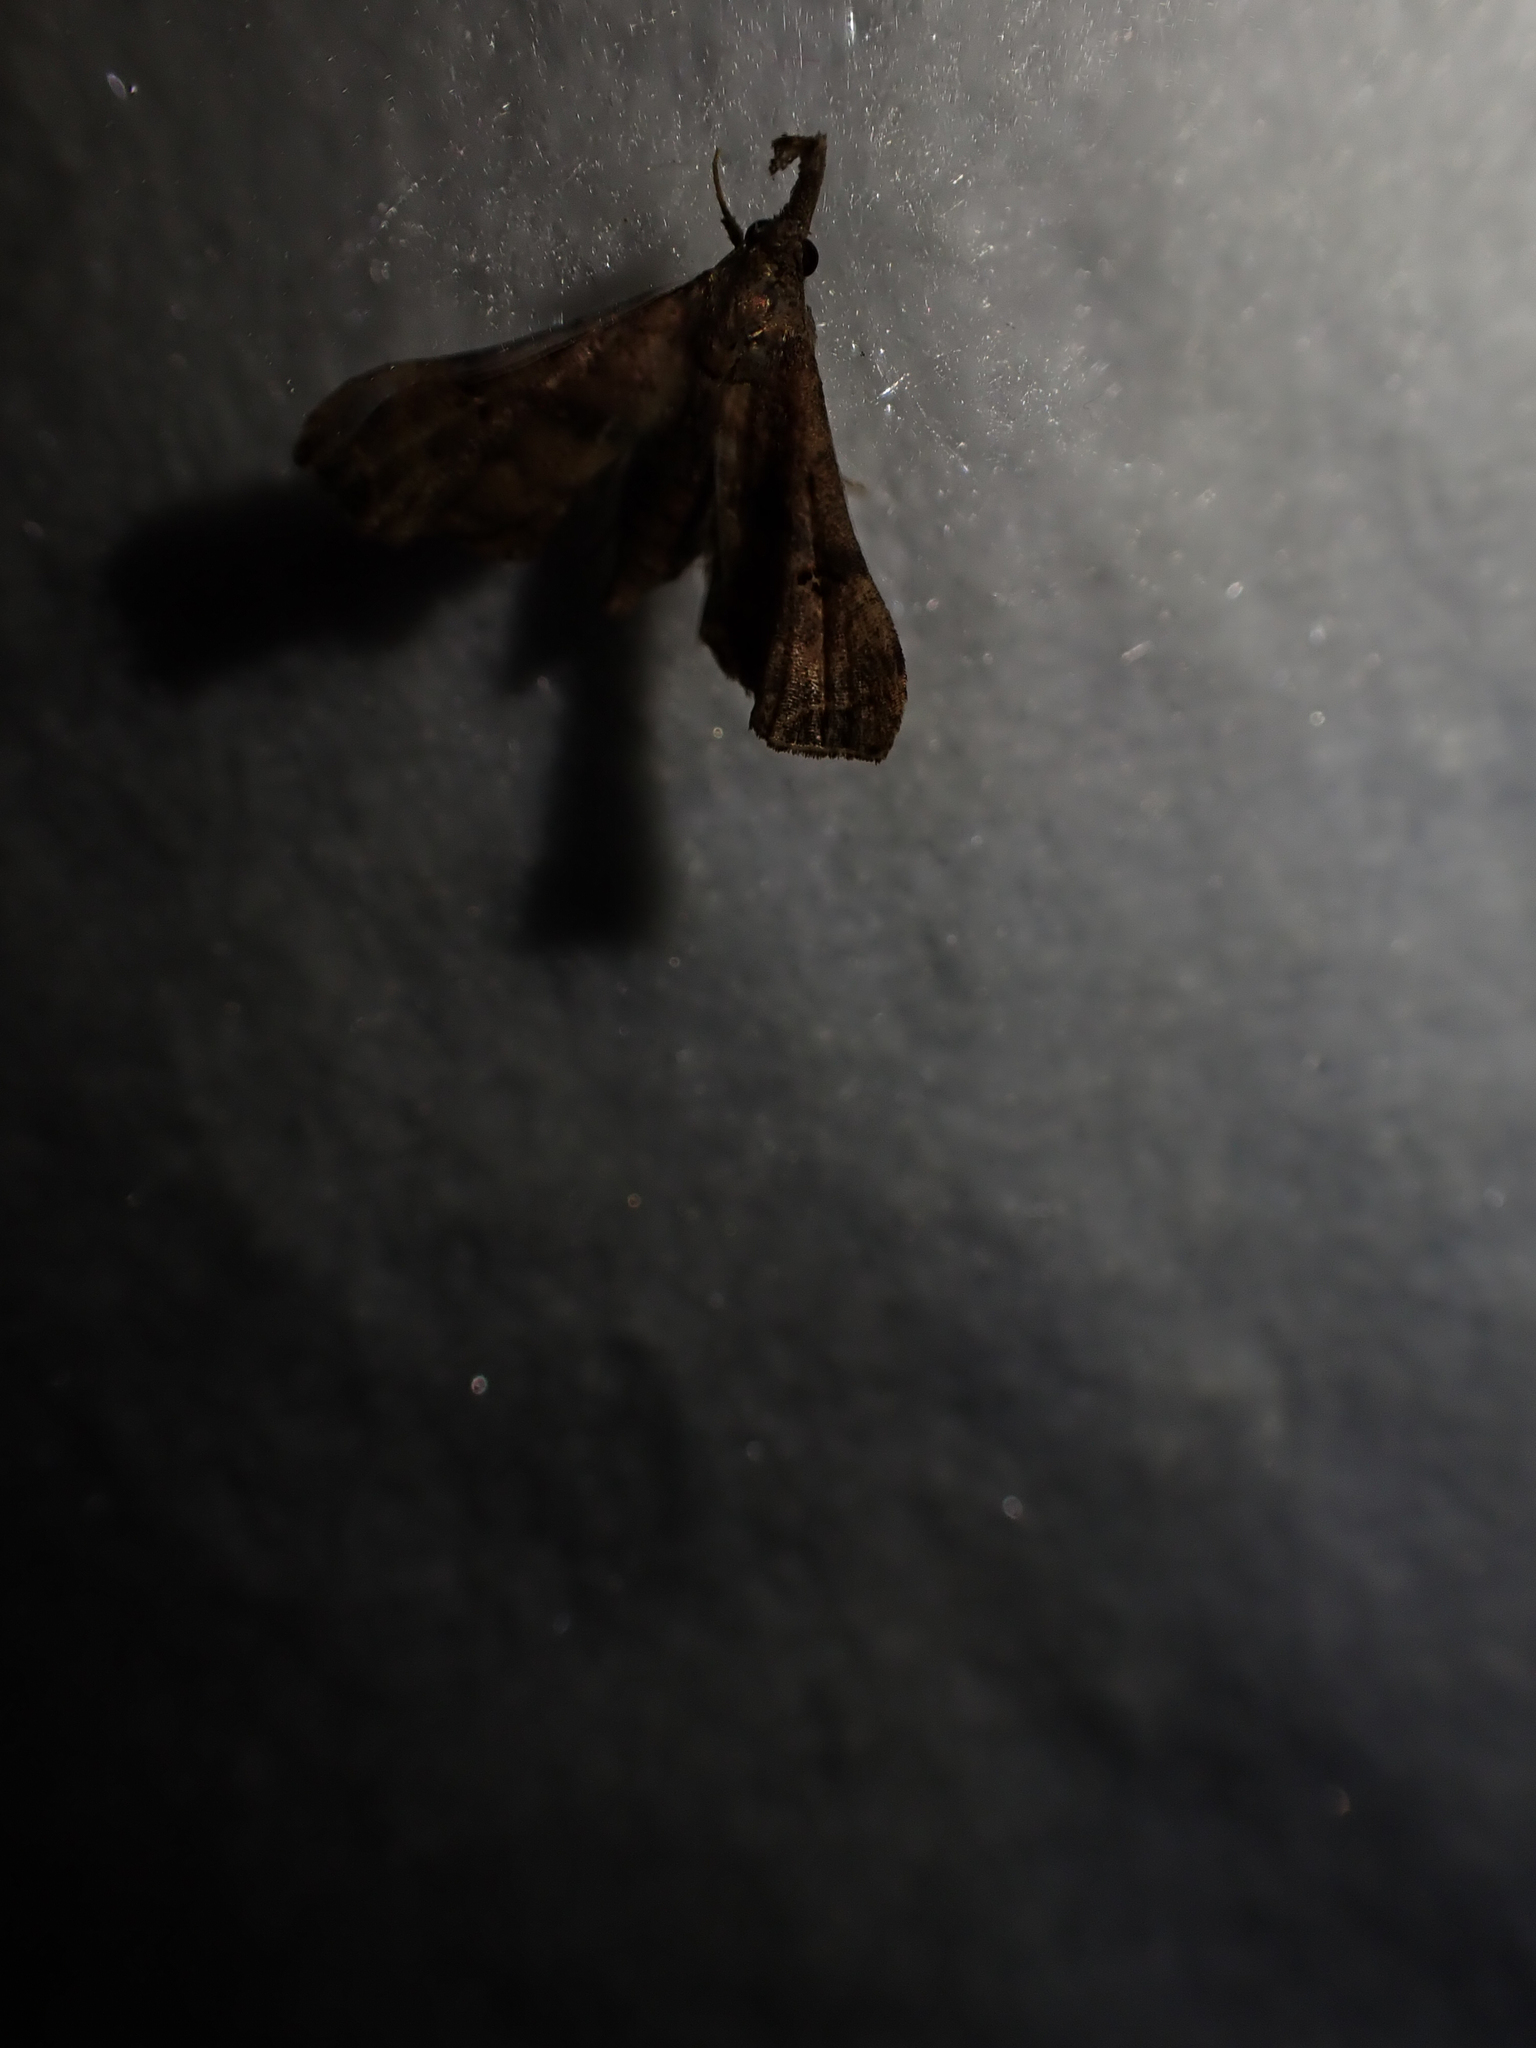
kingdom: Animalia
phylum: Arthropoda
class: Insecta
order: Lepidoptera
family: Erebidae
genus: Palthis
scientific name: Palthis asopialis
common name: Faint-spotted palthis moth
